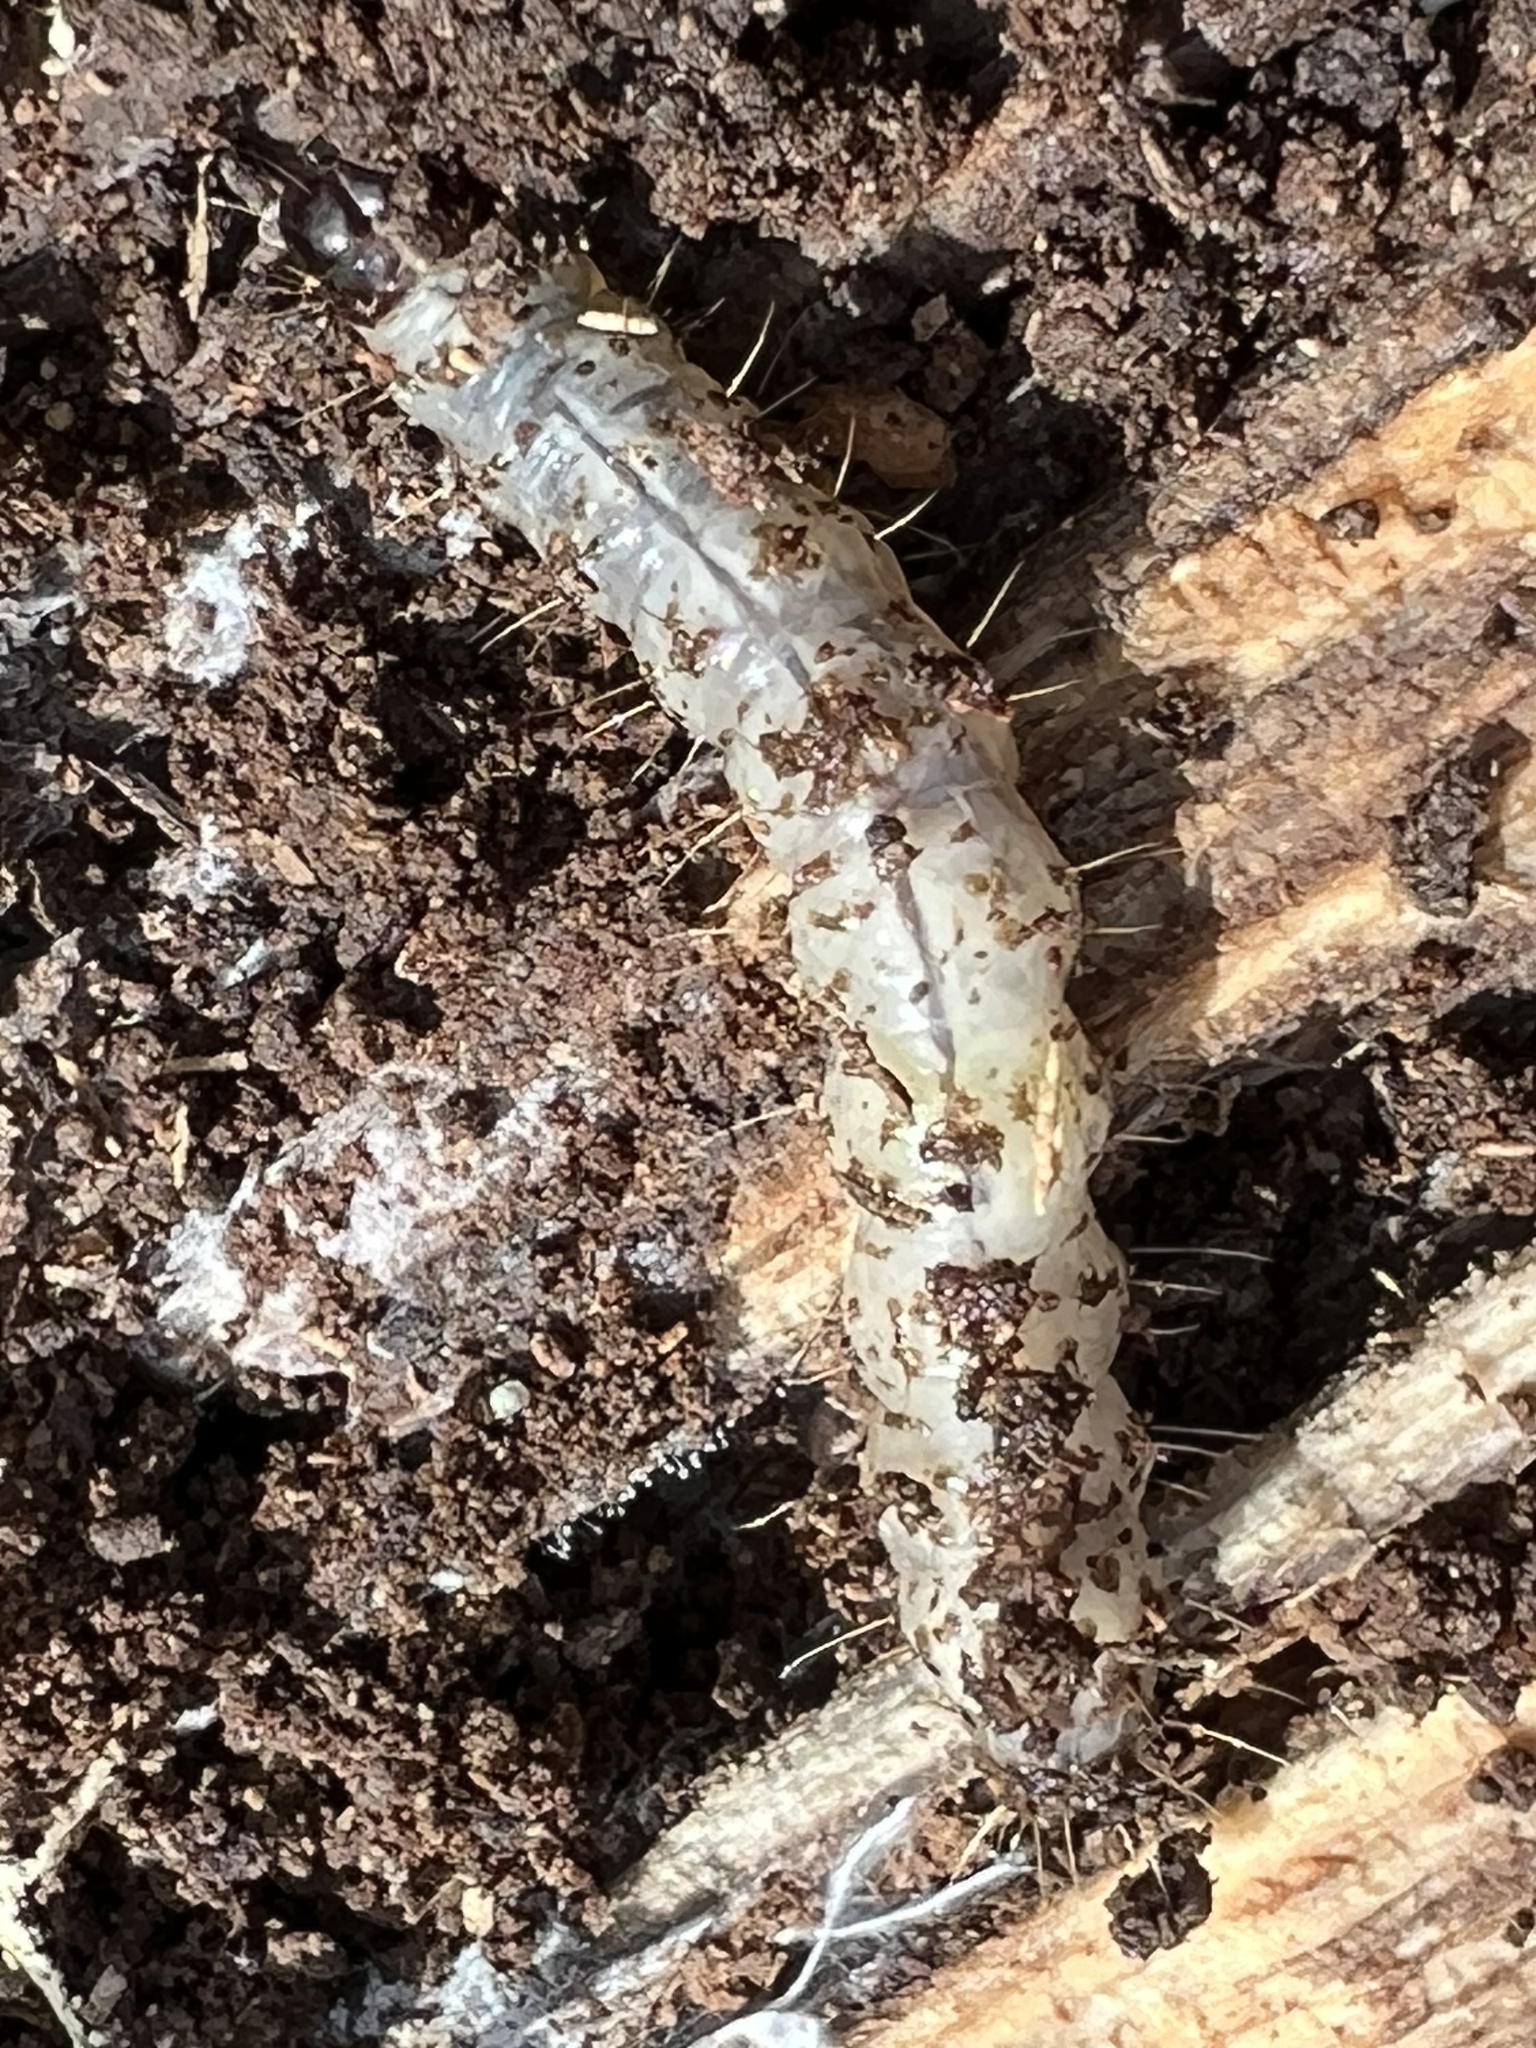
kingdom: Animalia
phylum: Arthropoda
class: Insecta
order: Lepidoptera
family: Erebidae
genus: Scolecocampa
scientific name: Scolecocampa liburna
